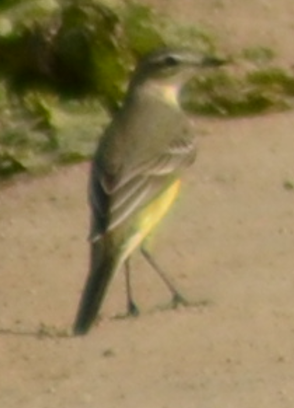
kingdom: Animalia
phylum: Chordata
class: Aves
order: Passeriformes
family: Motacillidae
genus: Motacilla
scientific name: Motacilla flava
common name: Western yellow wagtail
